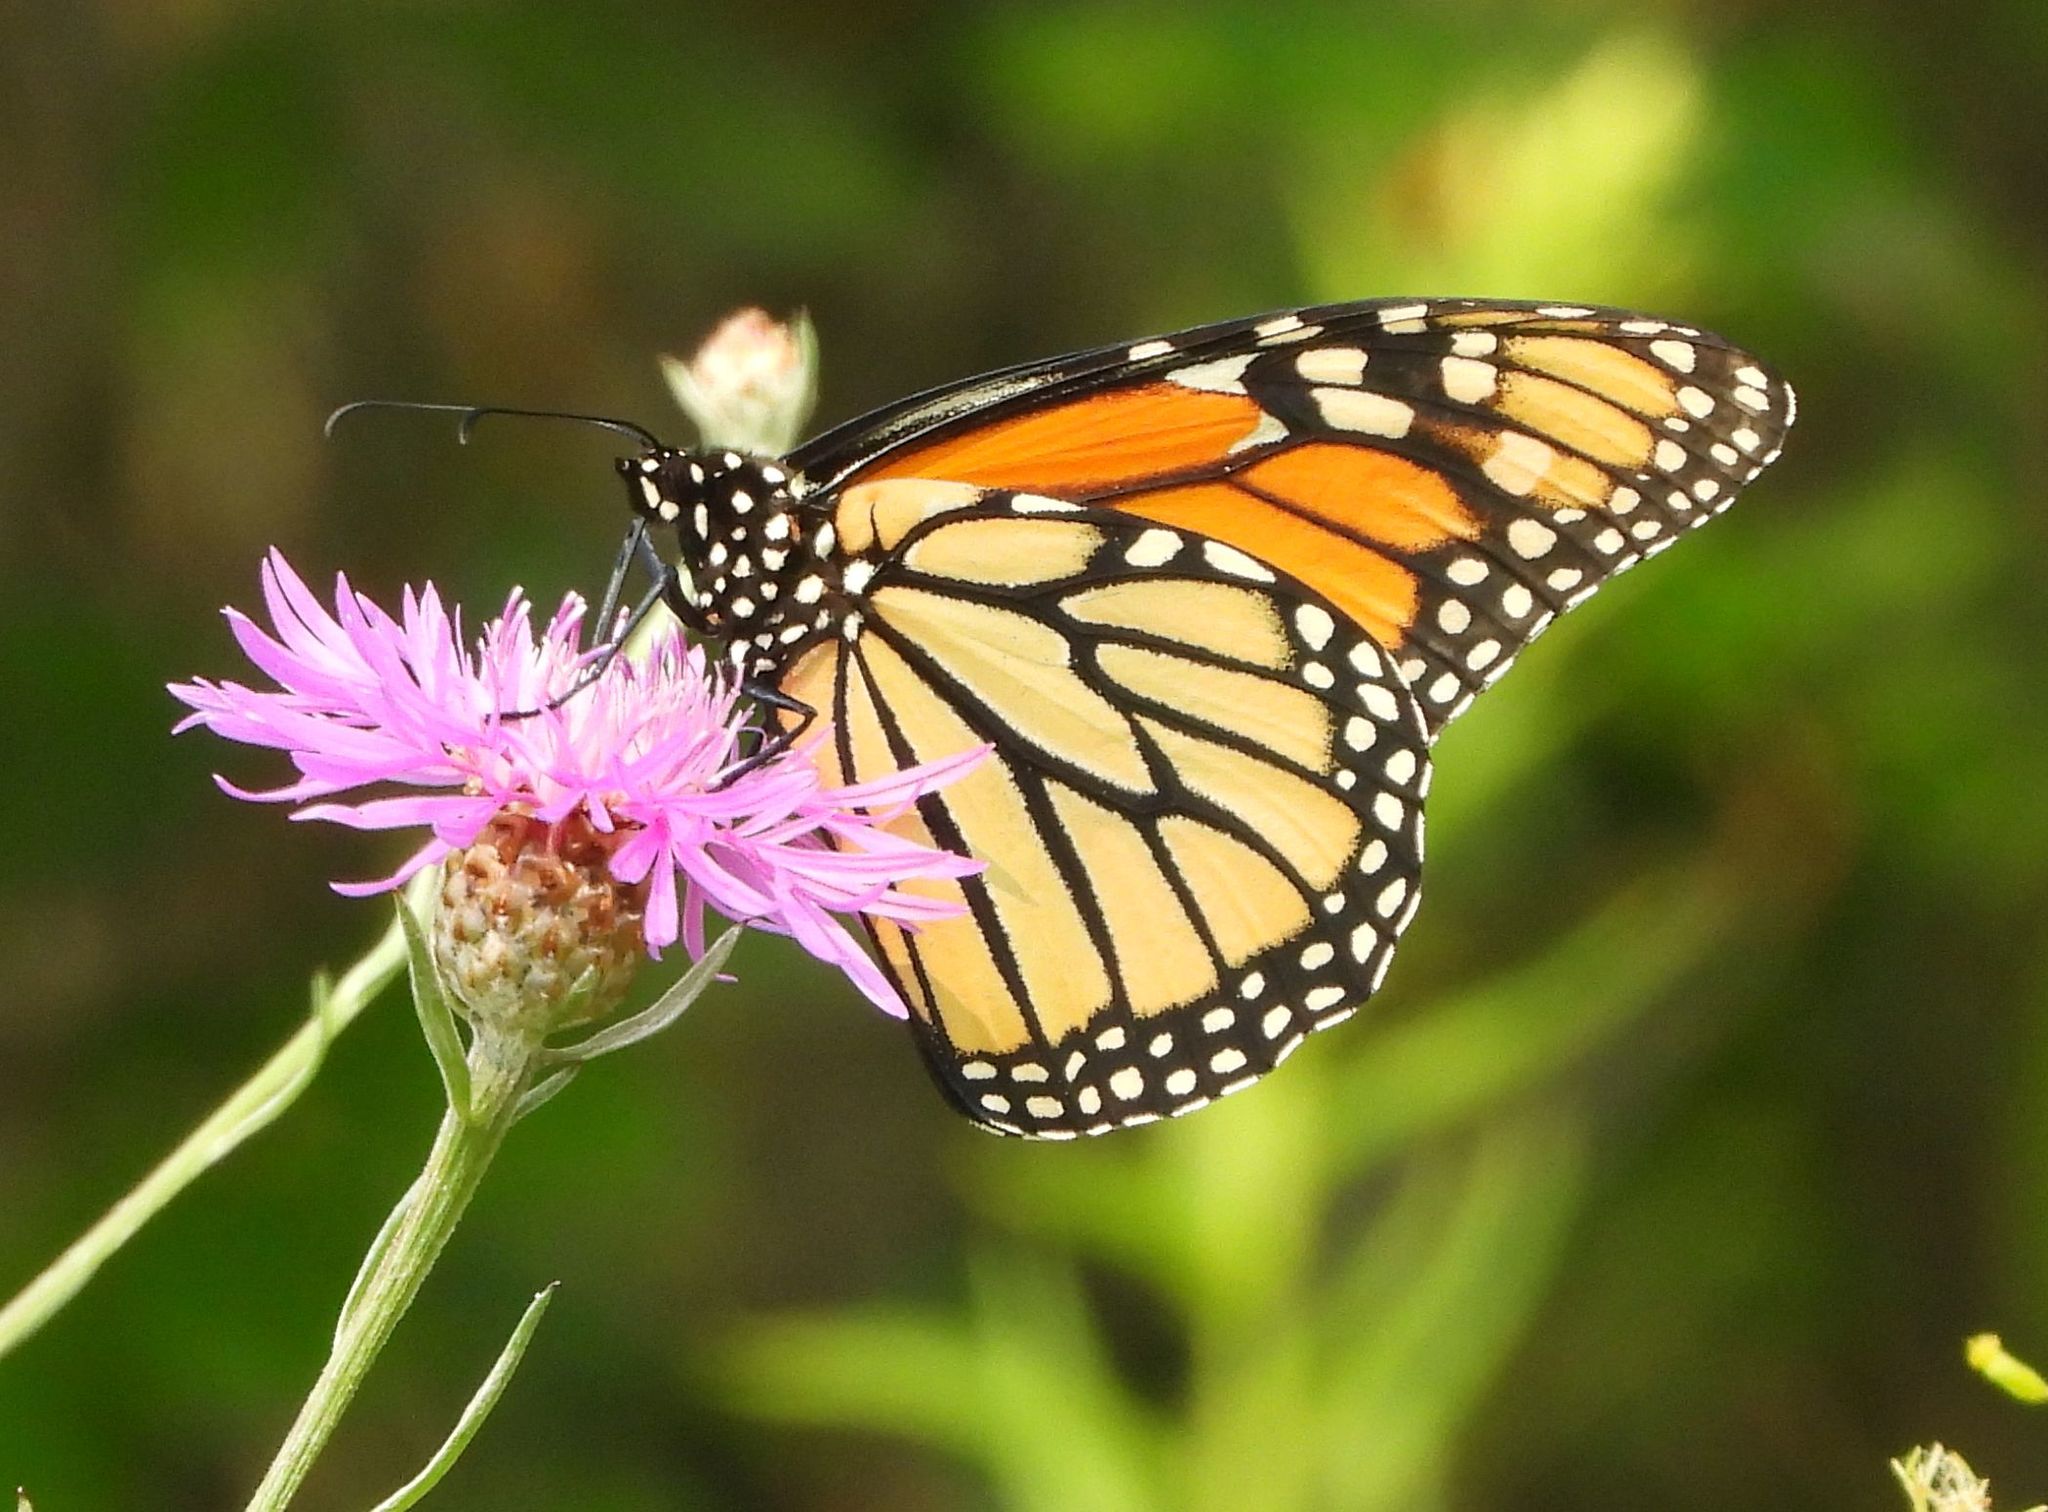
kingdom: Animalia
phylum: Arthropoda
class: Insecta
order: Lepidoptera
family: Nymphalidae
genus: Danaus
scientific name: Danaus plexippus
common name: Monarch
